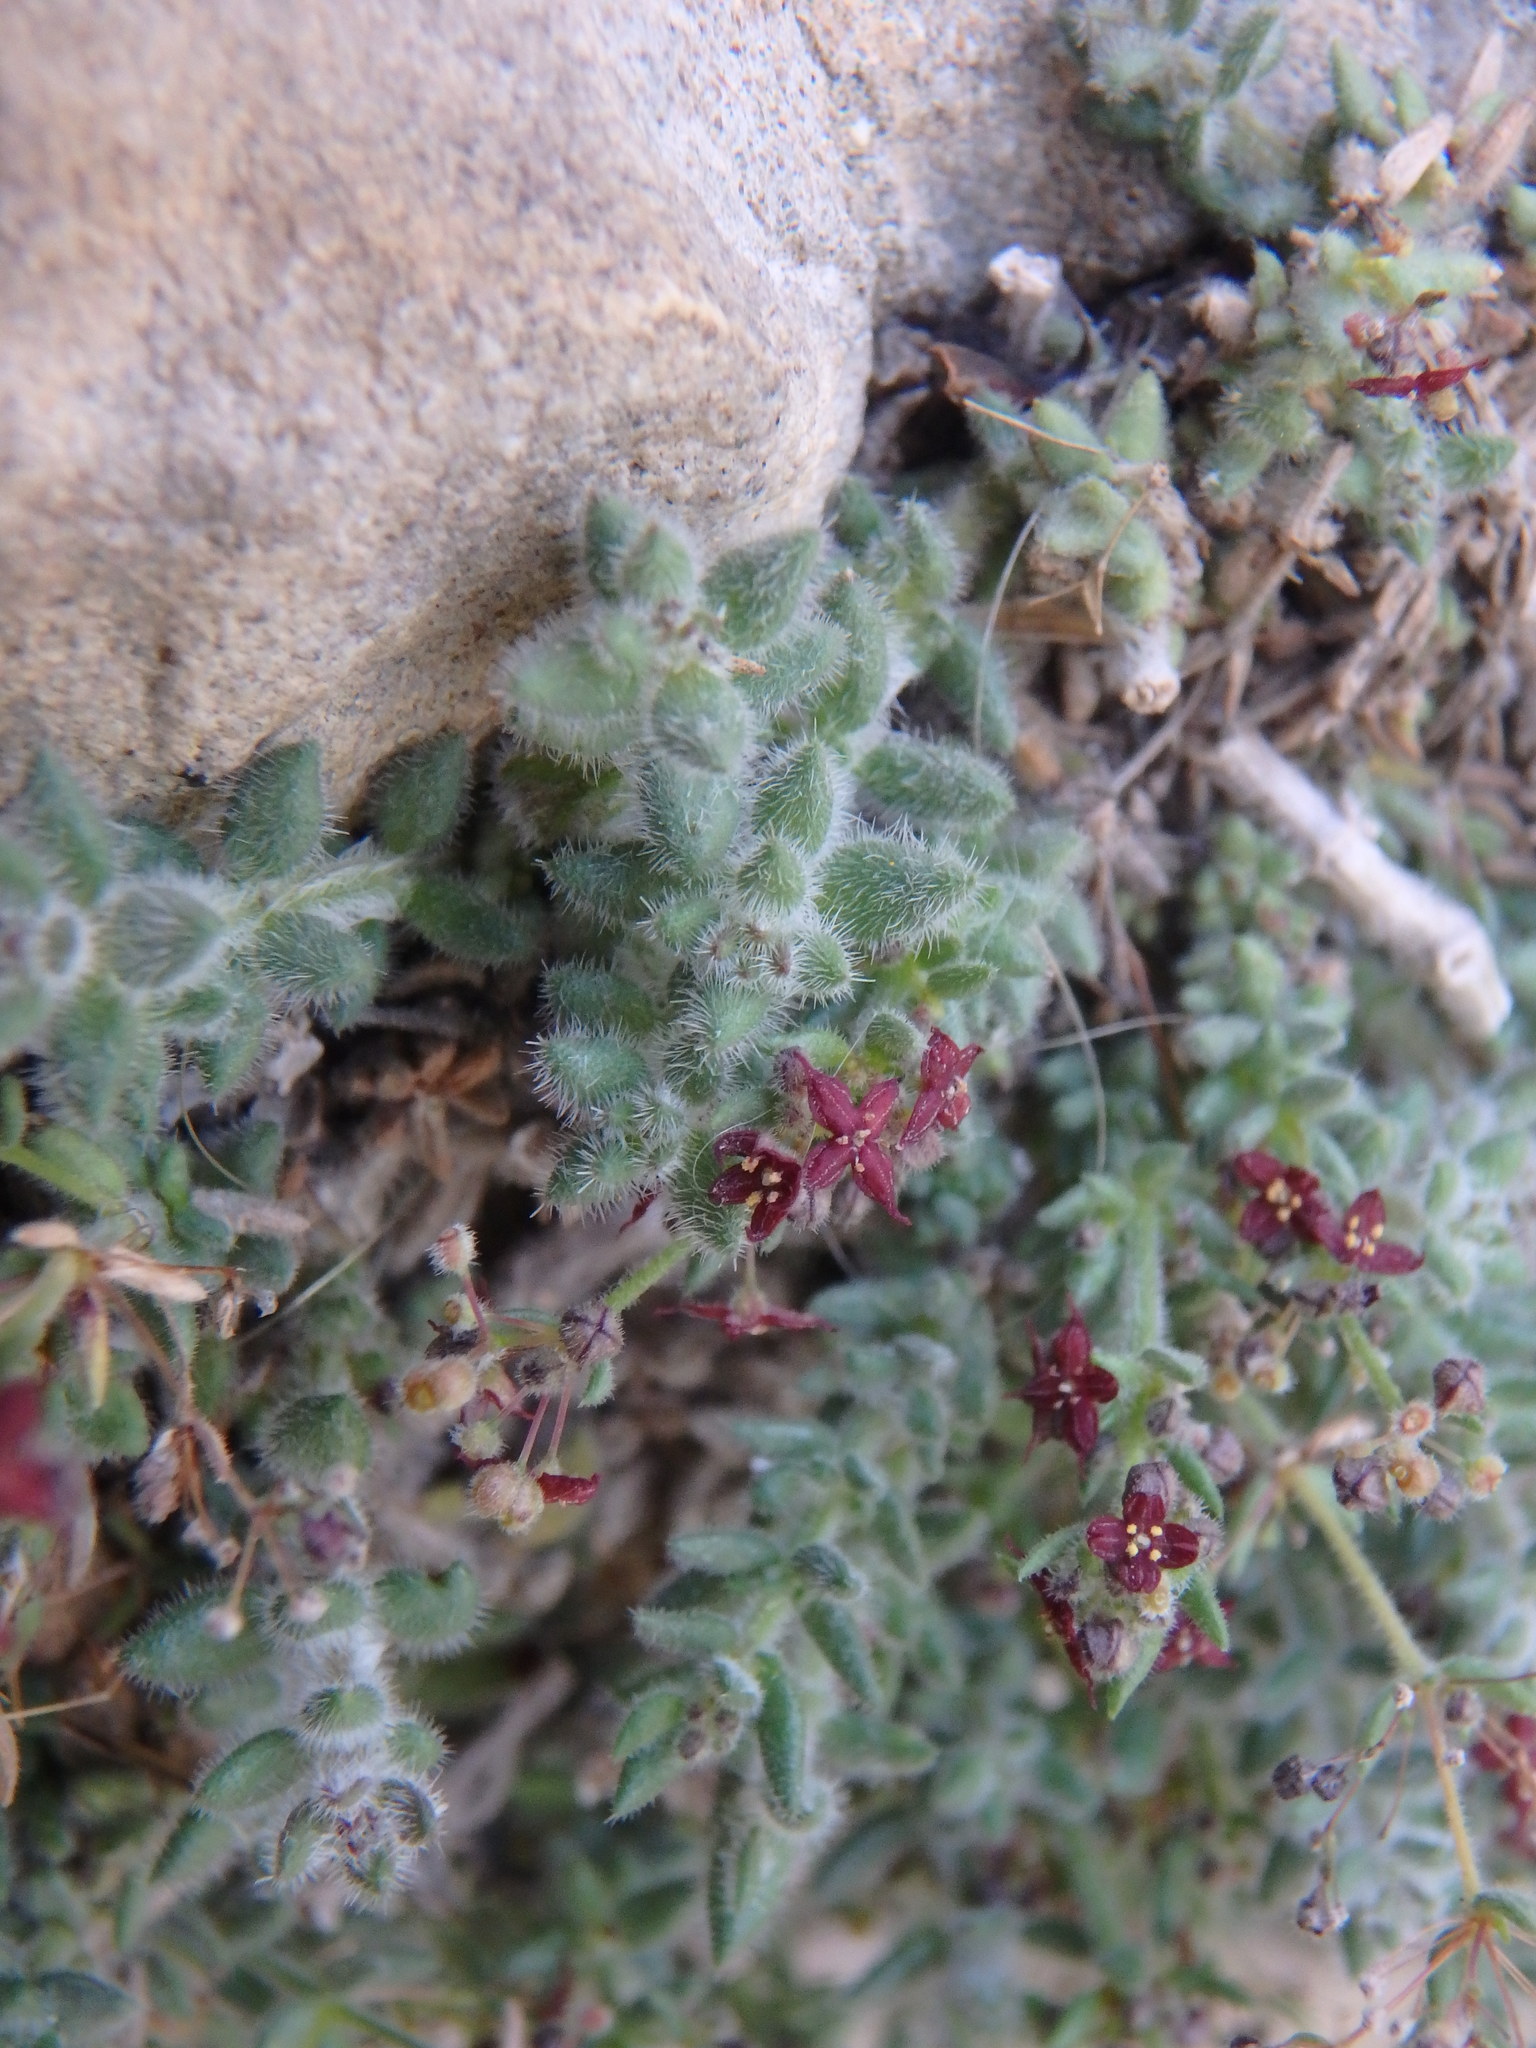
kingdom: Plantae
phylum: Tracheophyta
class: Magnoliopsida
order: Gentianales
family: Rubiaceae
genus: Galium
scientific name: Galium canum
